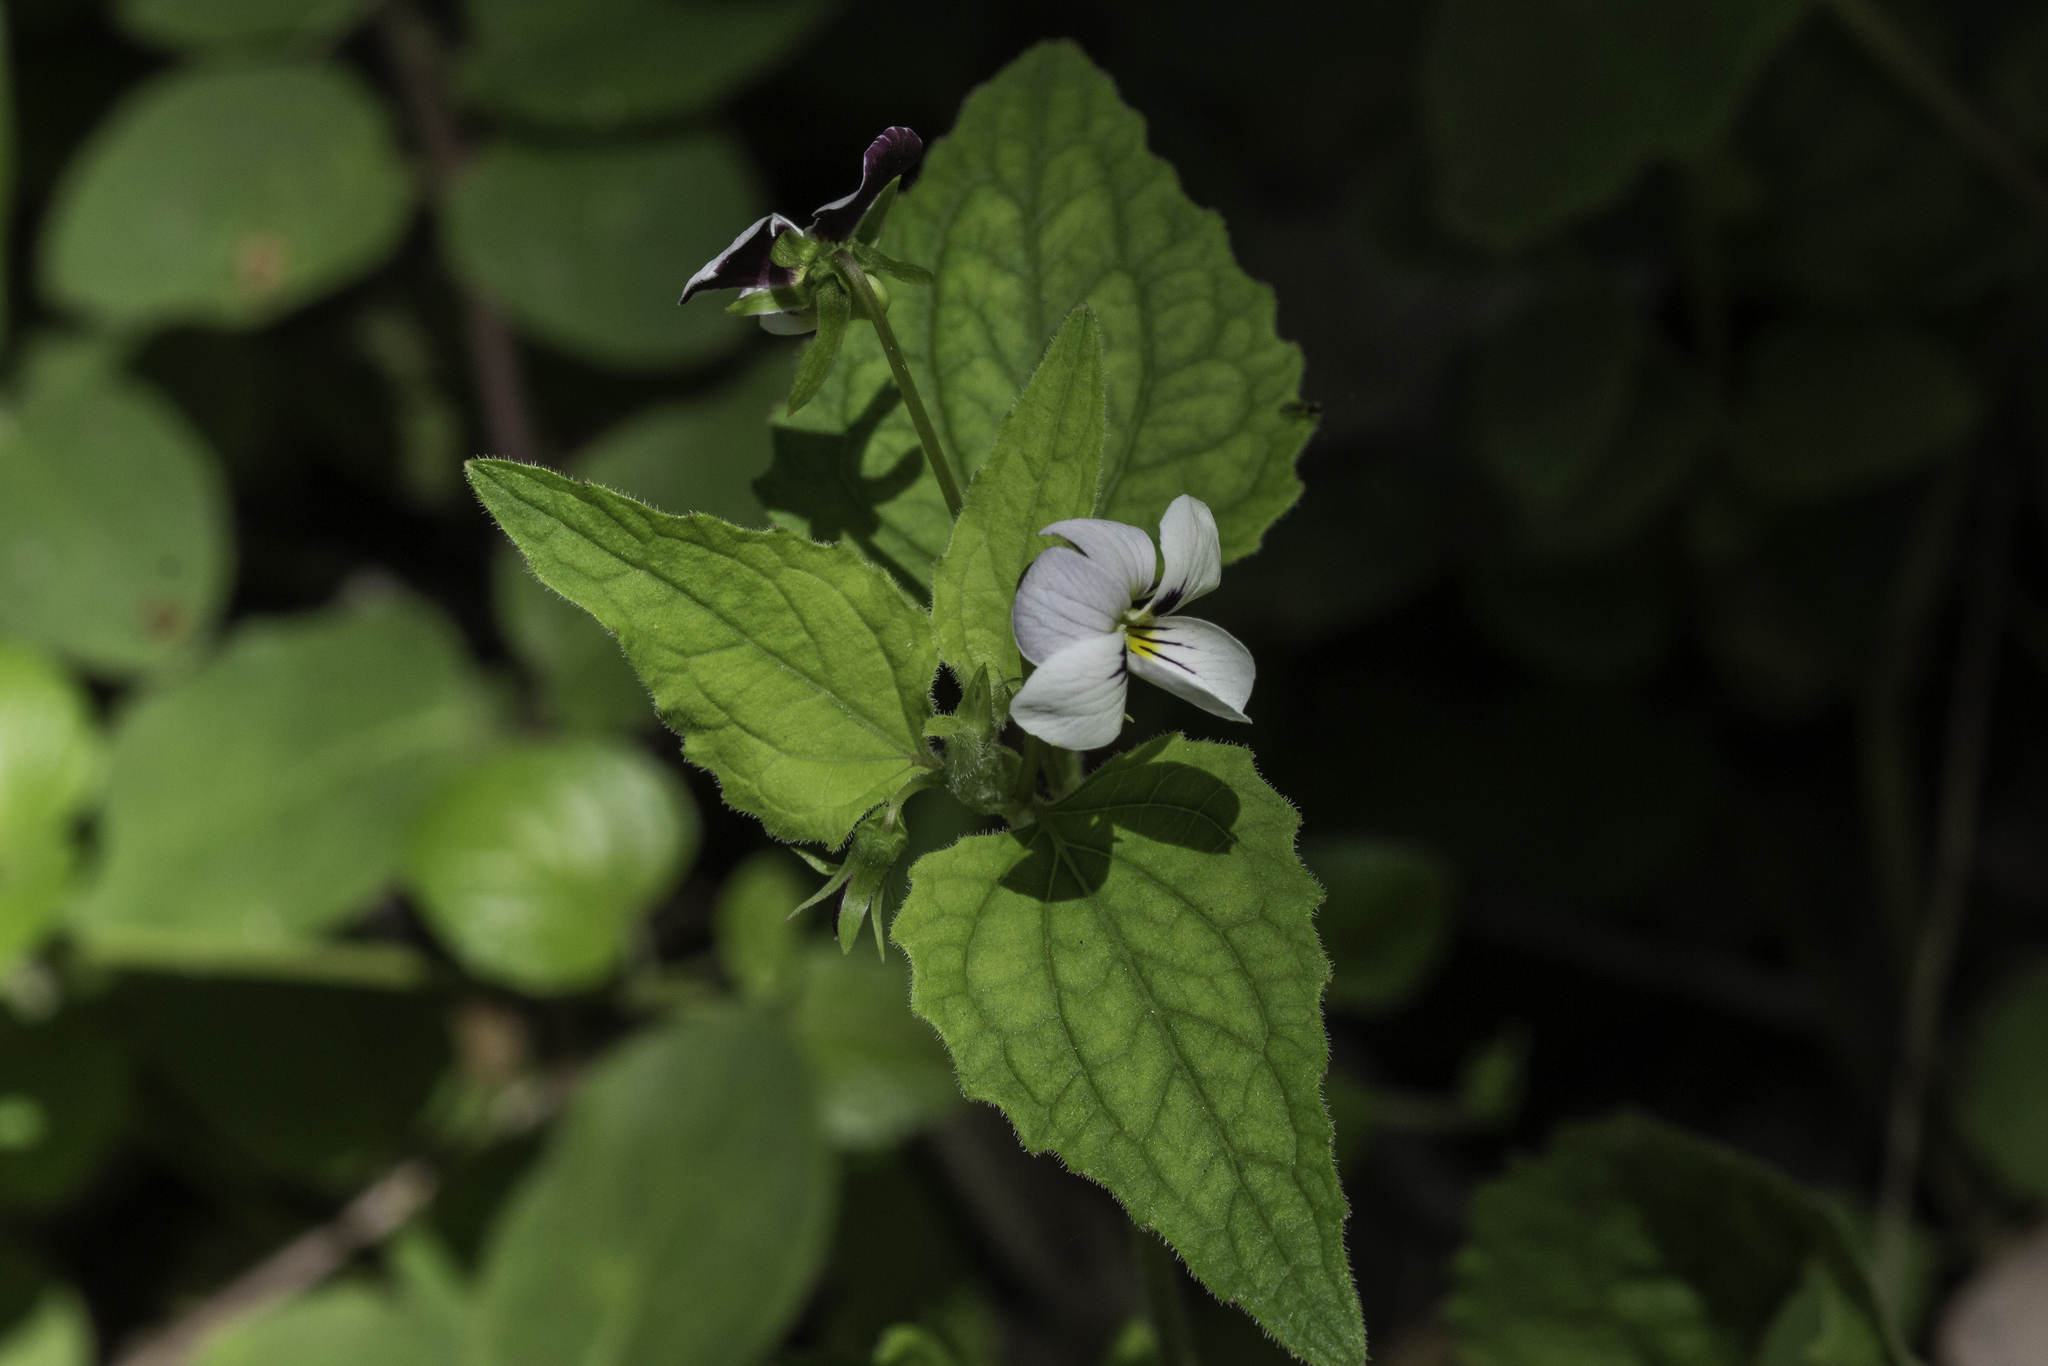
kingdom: Plantae
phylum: Tracheophyta
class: Magnoliopsida
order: Malpighiales
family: Violaceae
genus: Viola
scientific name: Viola ocellata
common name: Western heart's ease
